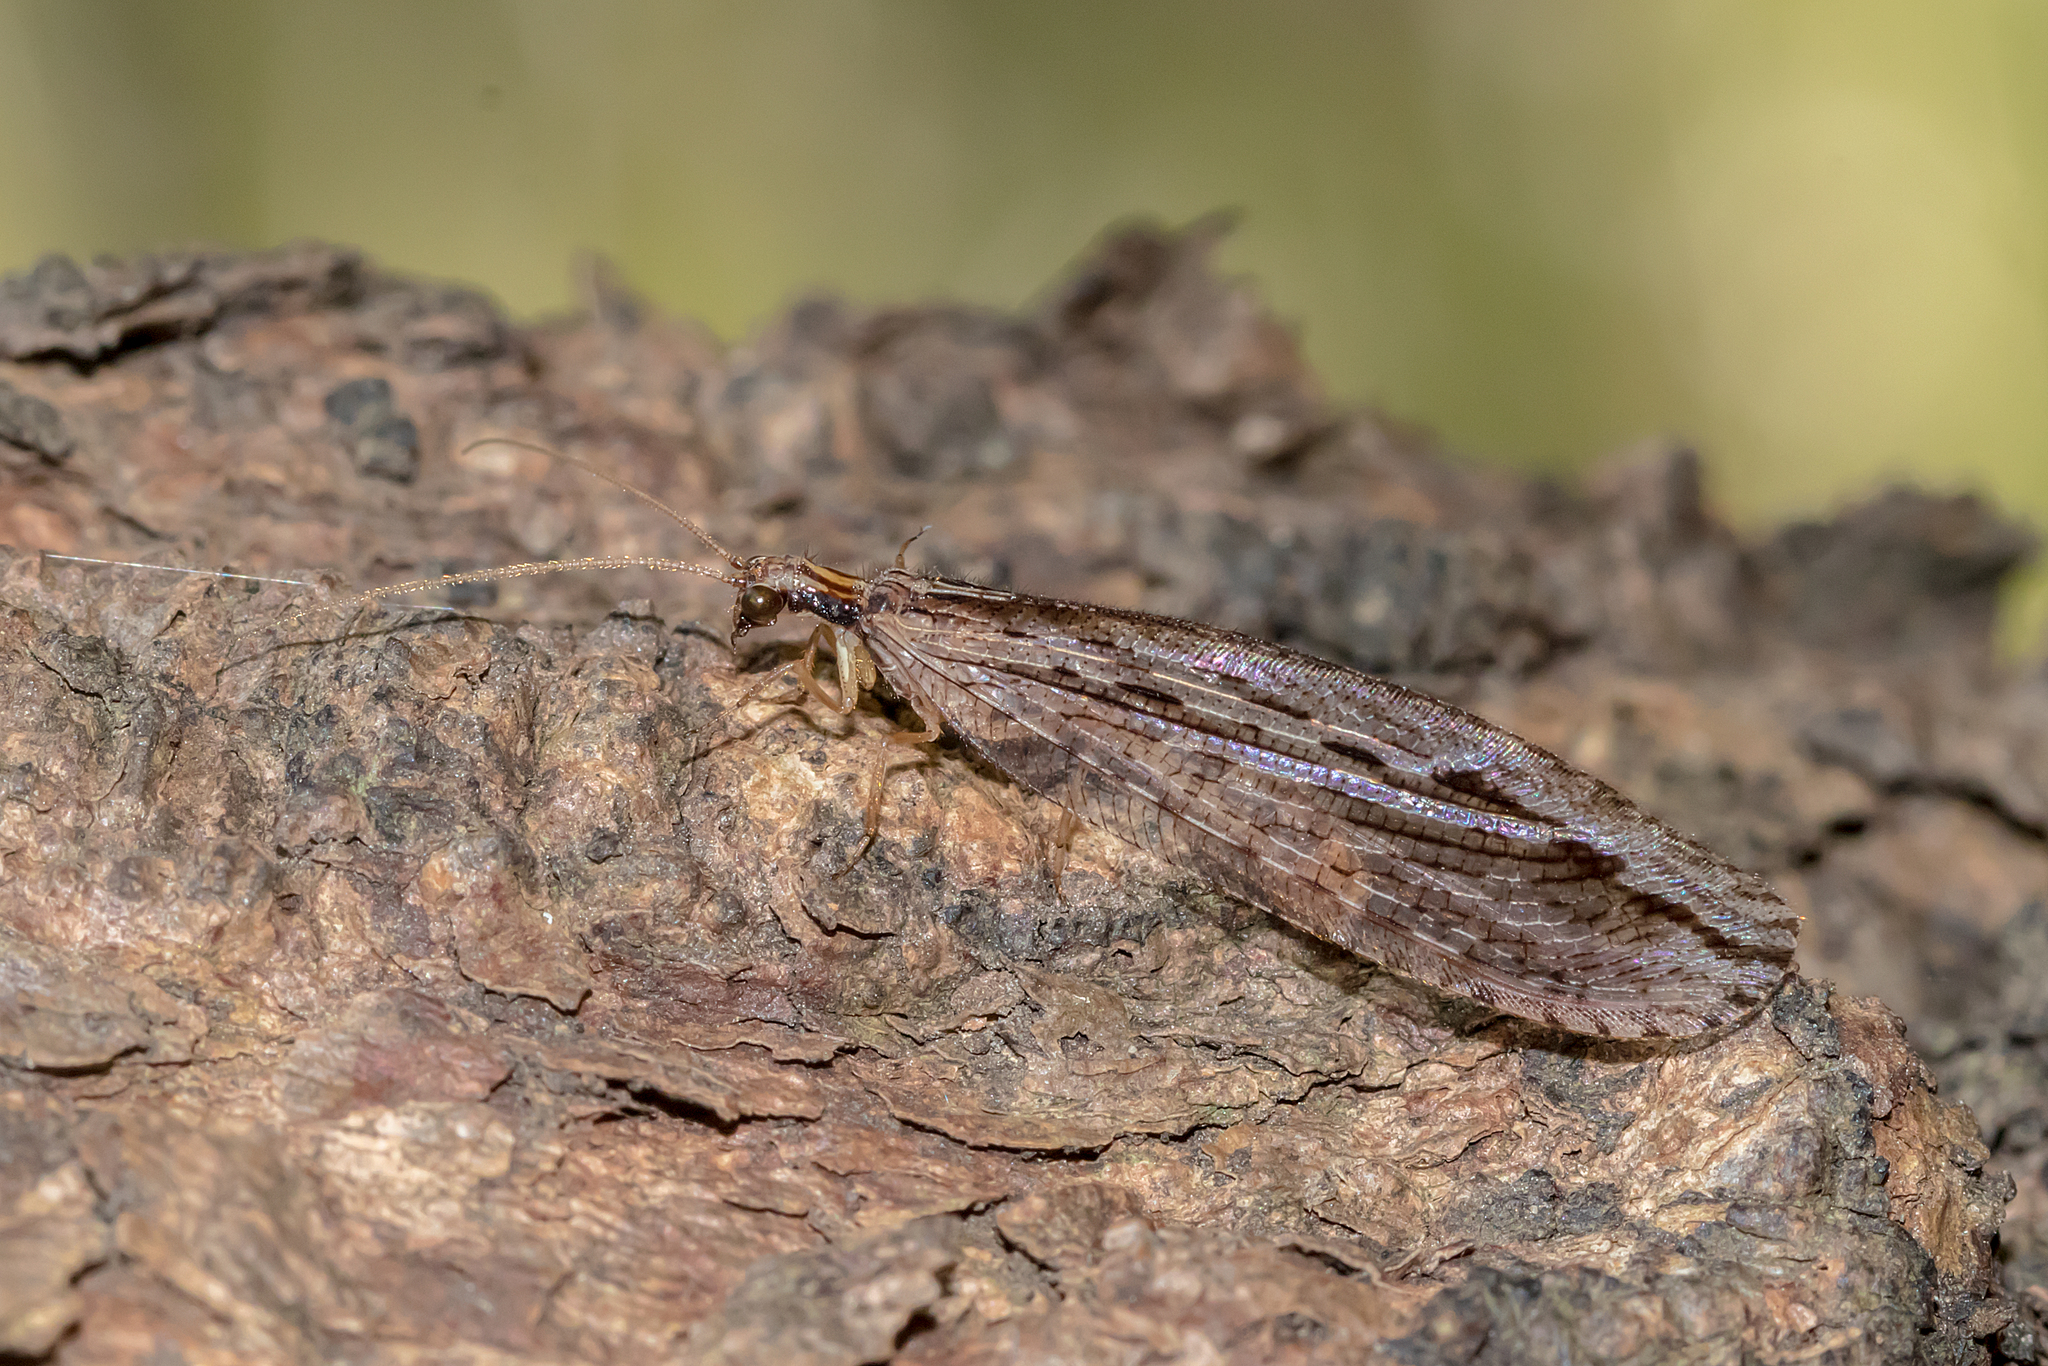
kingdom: Animalia
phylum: Arthropoda
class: Insecta
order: Neuroptera
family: Osmylidae
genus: Stenosmylus
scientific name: Stenosmylus stenopterus
